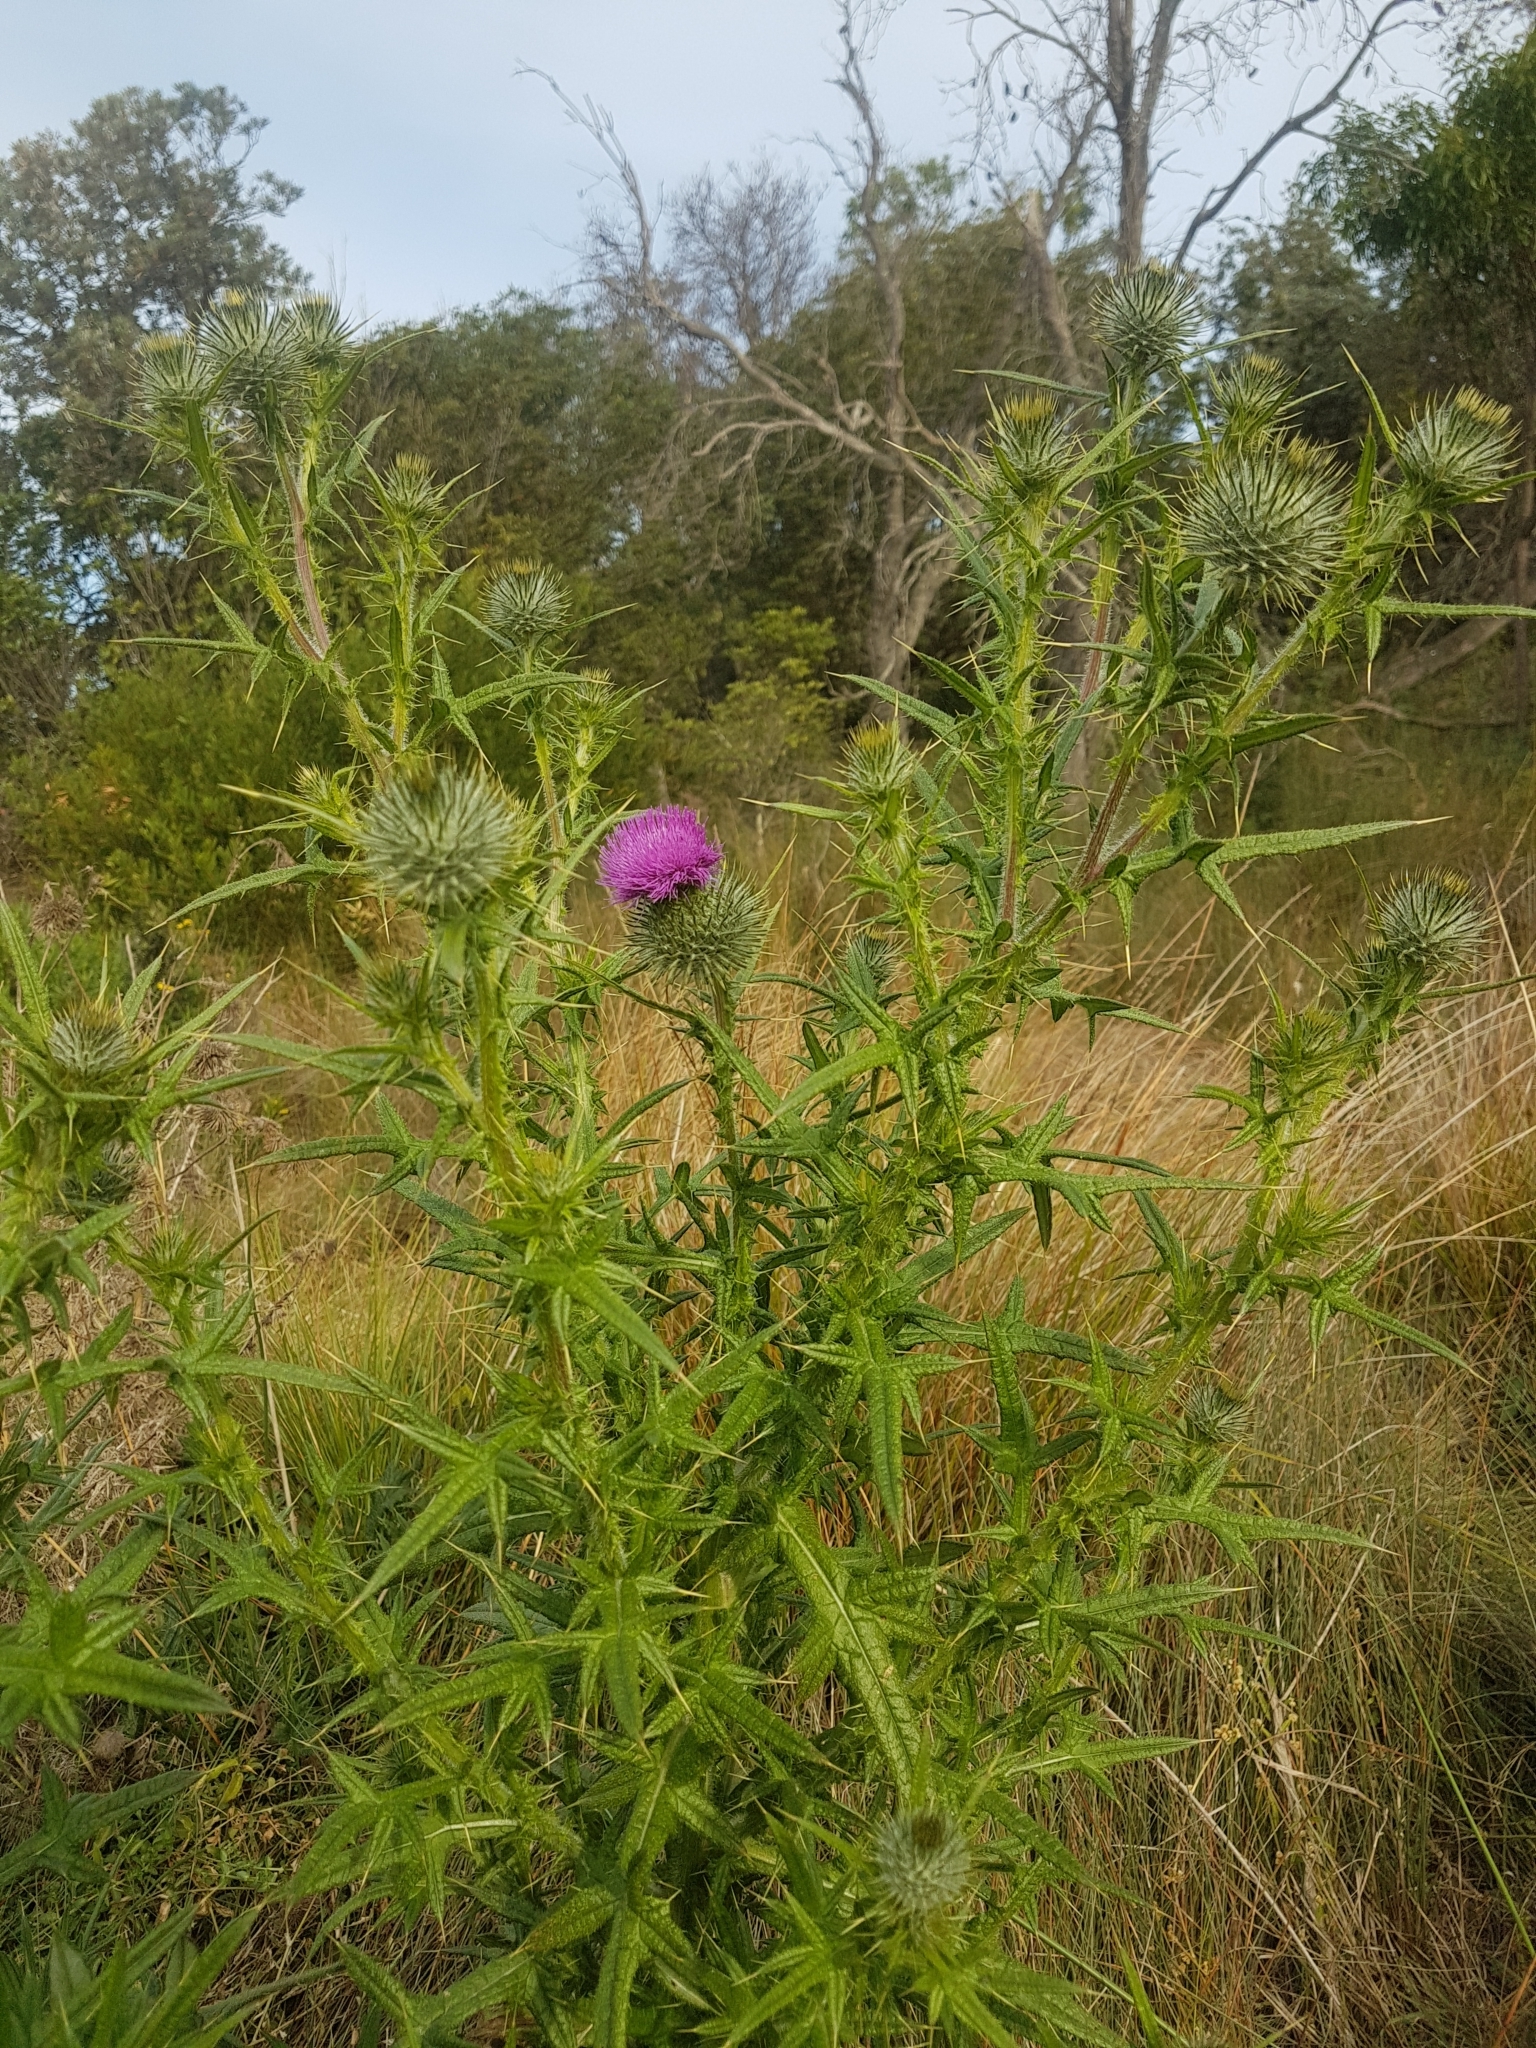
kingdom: Plantae
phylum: Tracheophyta
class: Magnoliopsida
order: Asterales
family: Asteraceae
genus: Cirsium
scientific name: Cirsium vulgare
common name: Bull thistle
